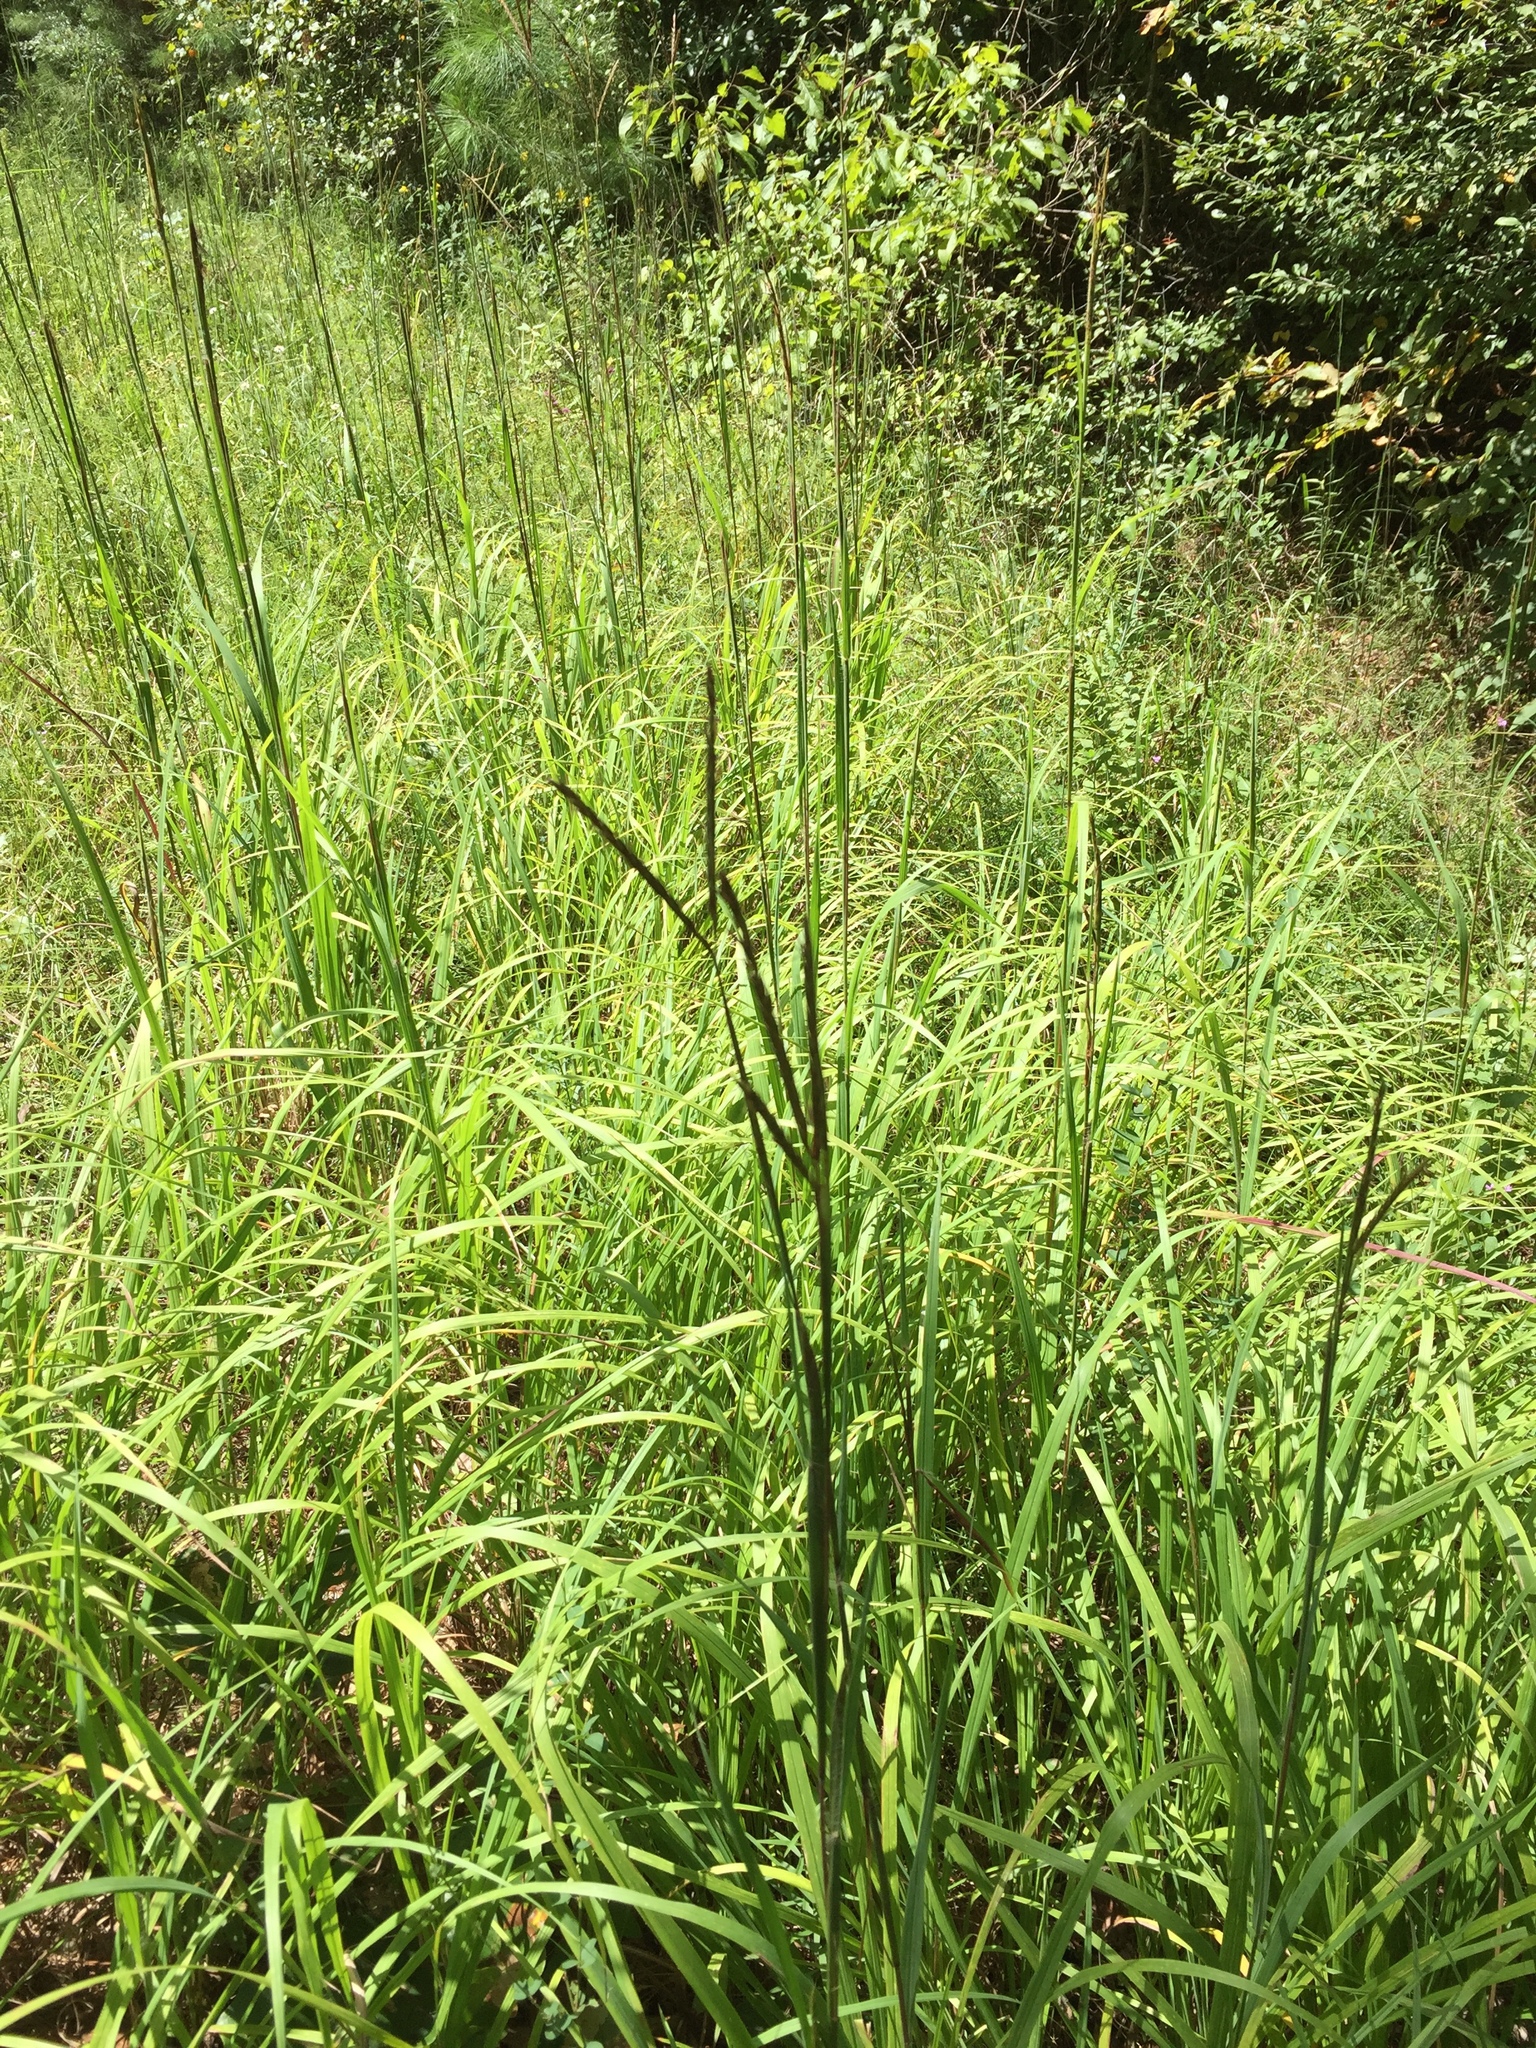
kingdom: Plantae
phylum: Tracheophyta
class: Liliopsida
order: Poales
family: Poaceae
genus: Andropogon
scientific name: Andropogon gerardi
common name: Big bluestem
